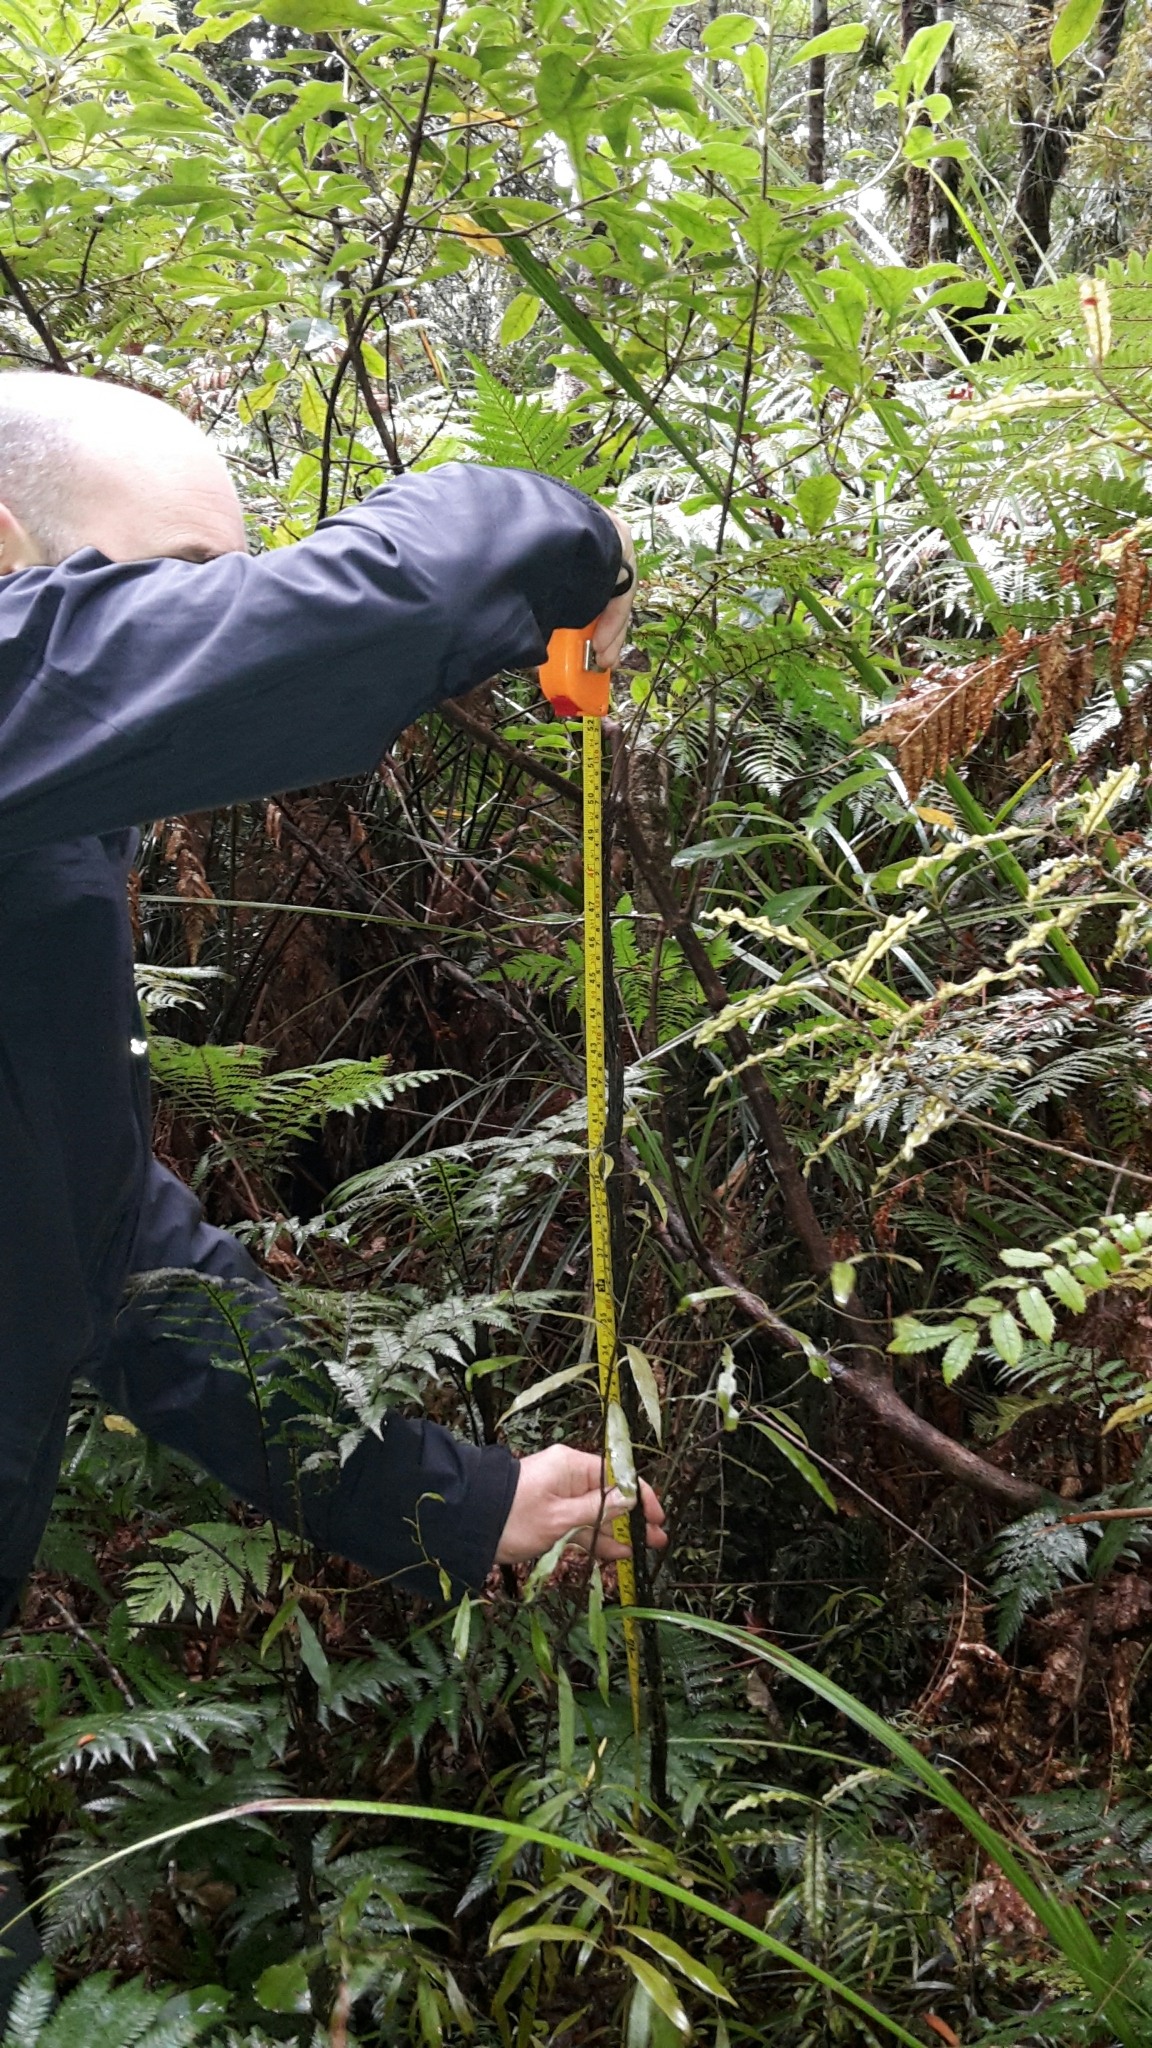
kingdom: Plantae
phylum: Tracheophyta
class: Polypodiopsida
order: Polypodiales
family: Blechnaceae
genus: Diploblechnum
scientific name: Diploblechnum fraseri
